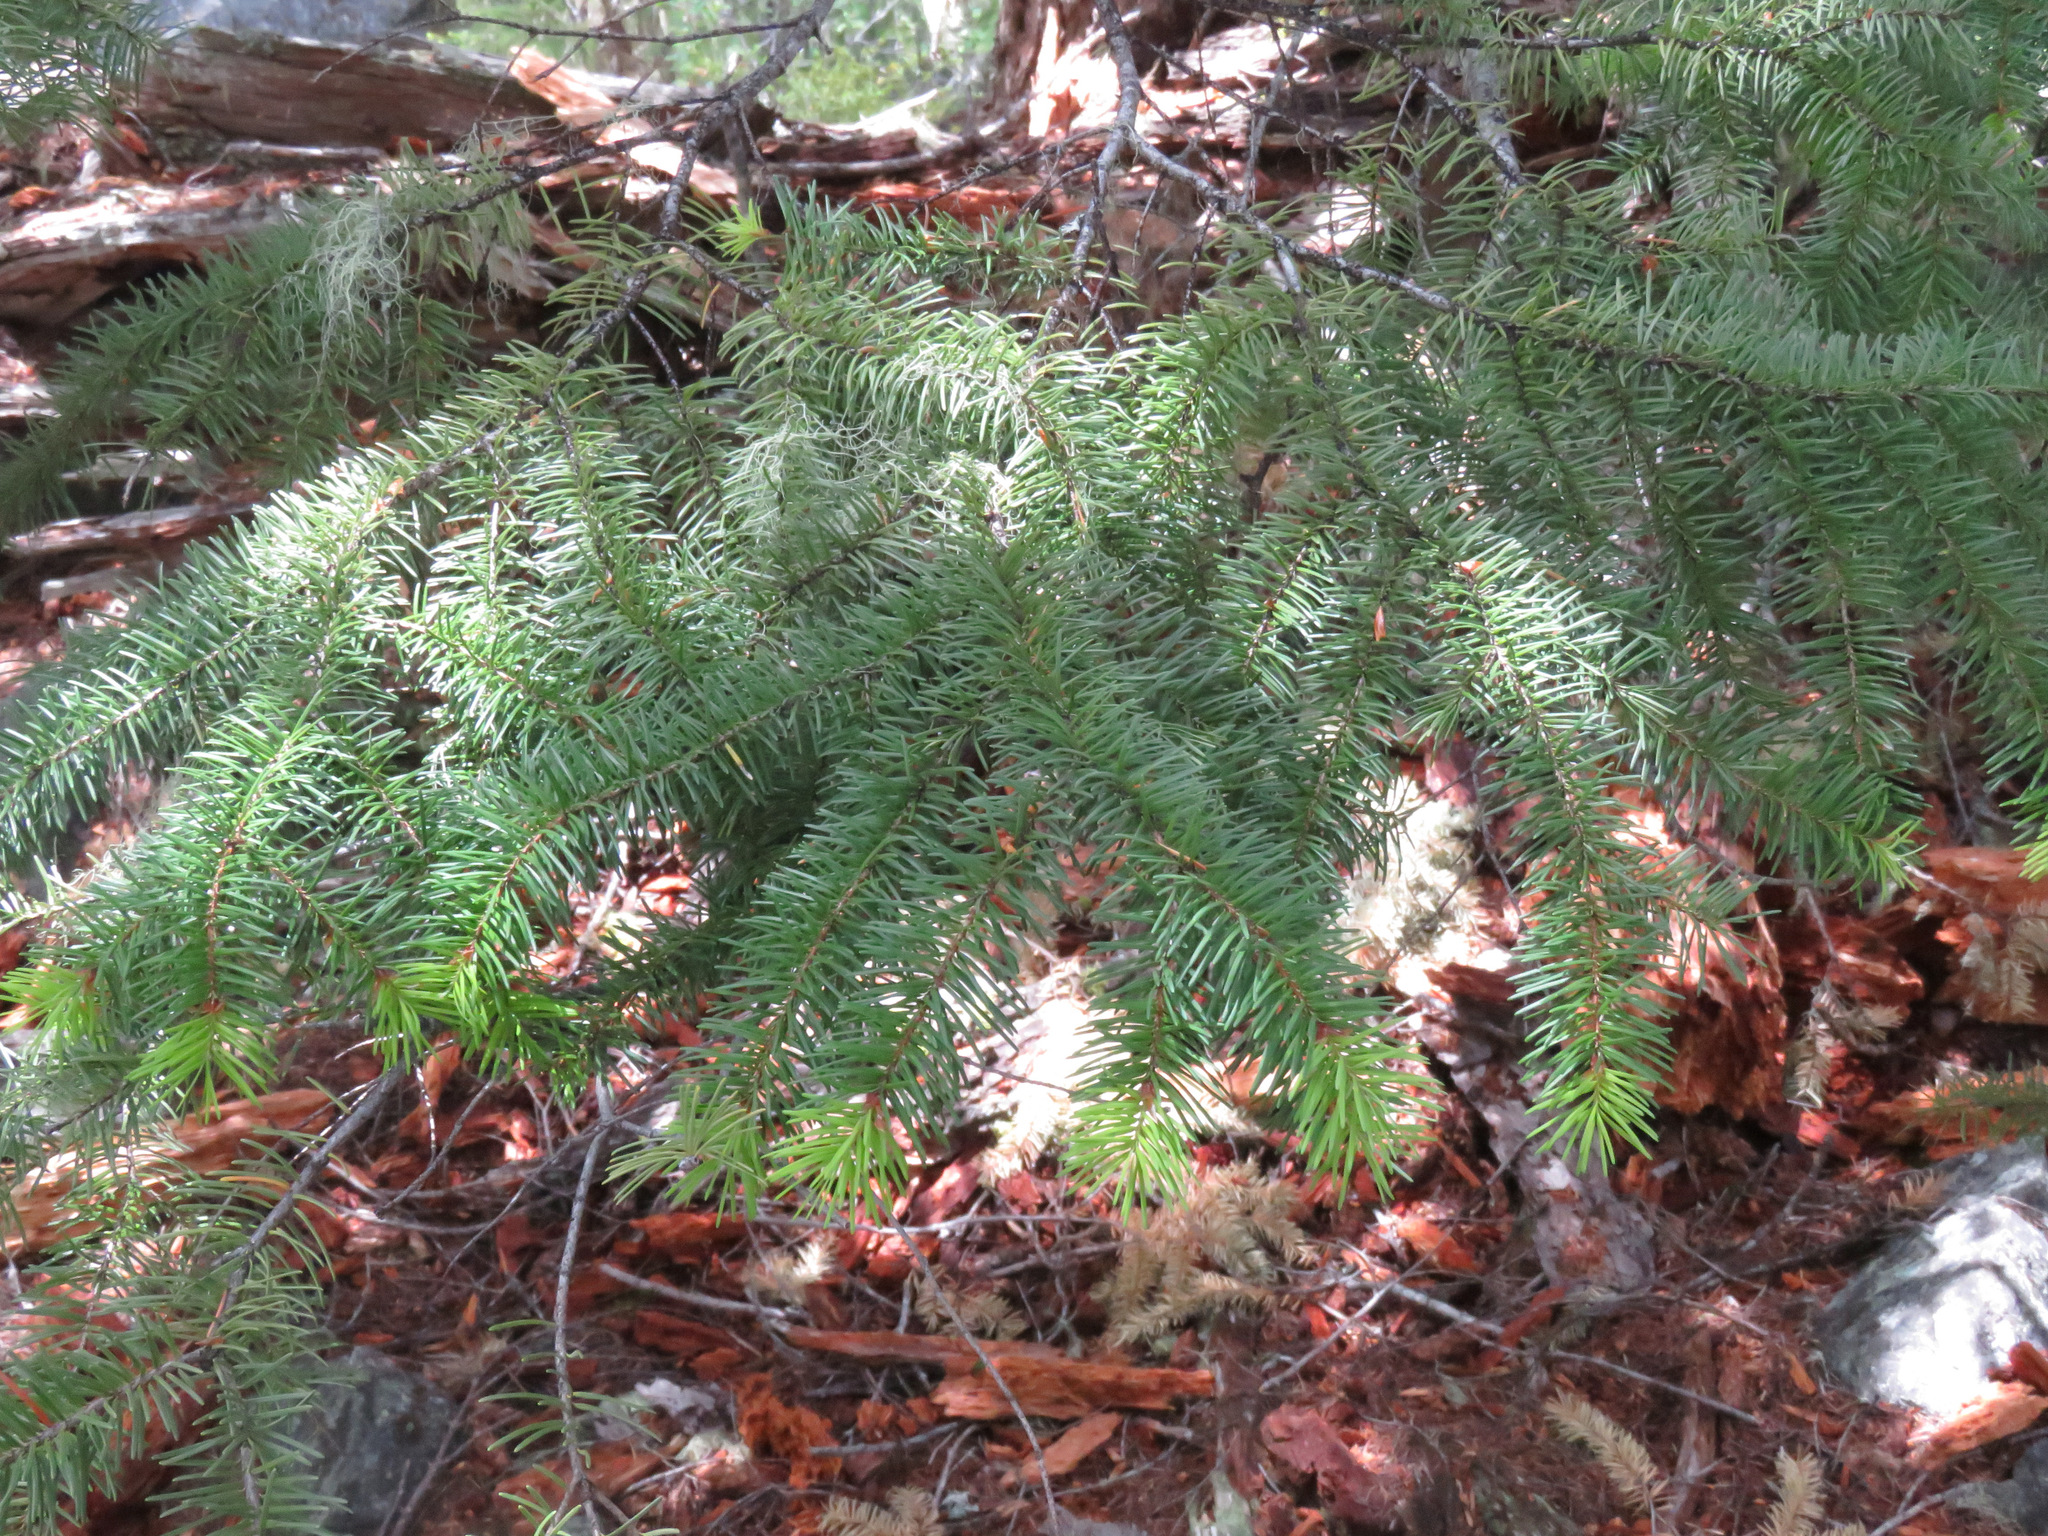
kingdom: Plantae
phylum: Tracheophyta
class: Pinopsida
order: Pinales
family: Pinaceae
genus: Pseudotsuga
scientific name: Pseudotsuga menziesii
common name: Douglas fir
